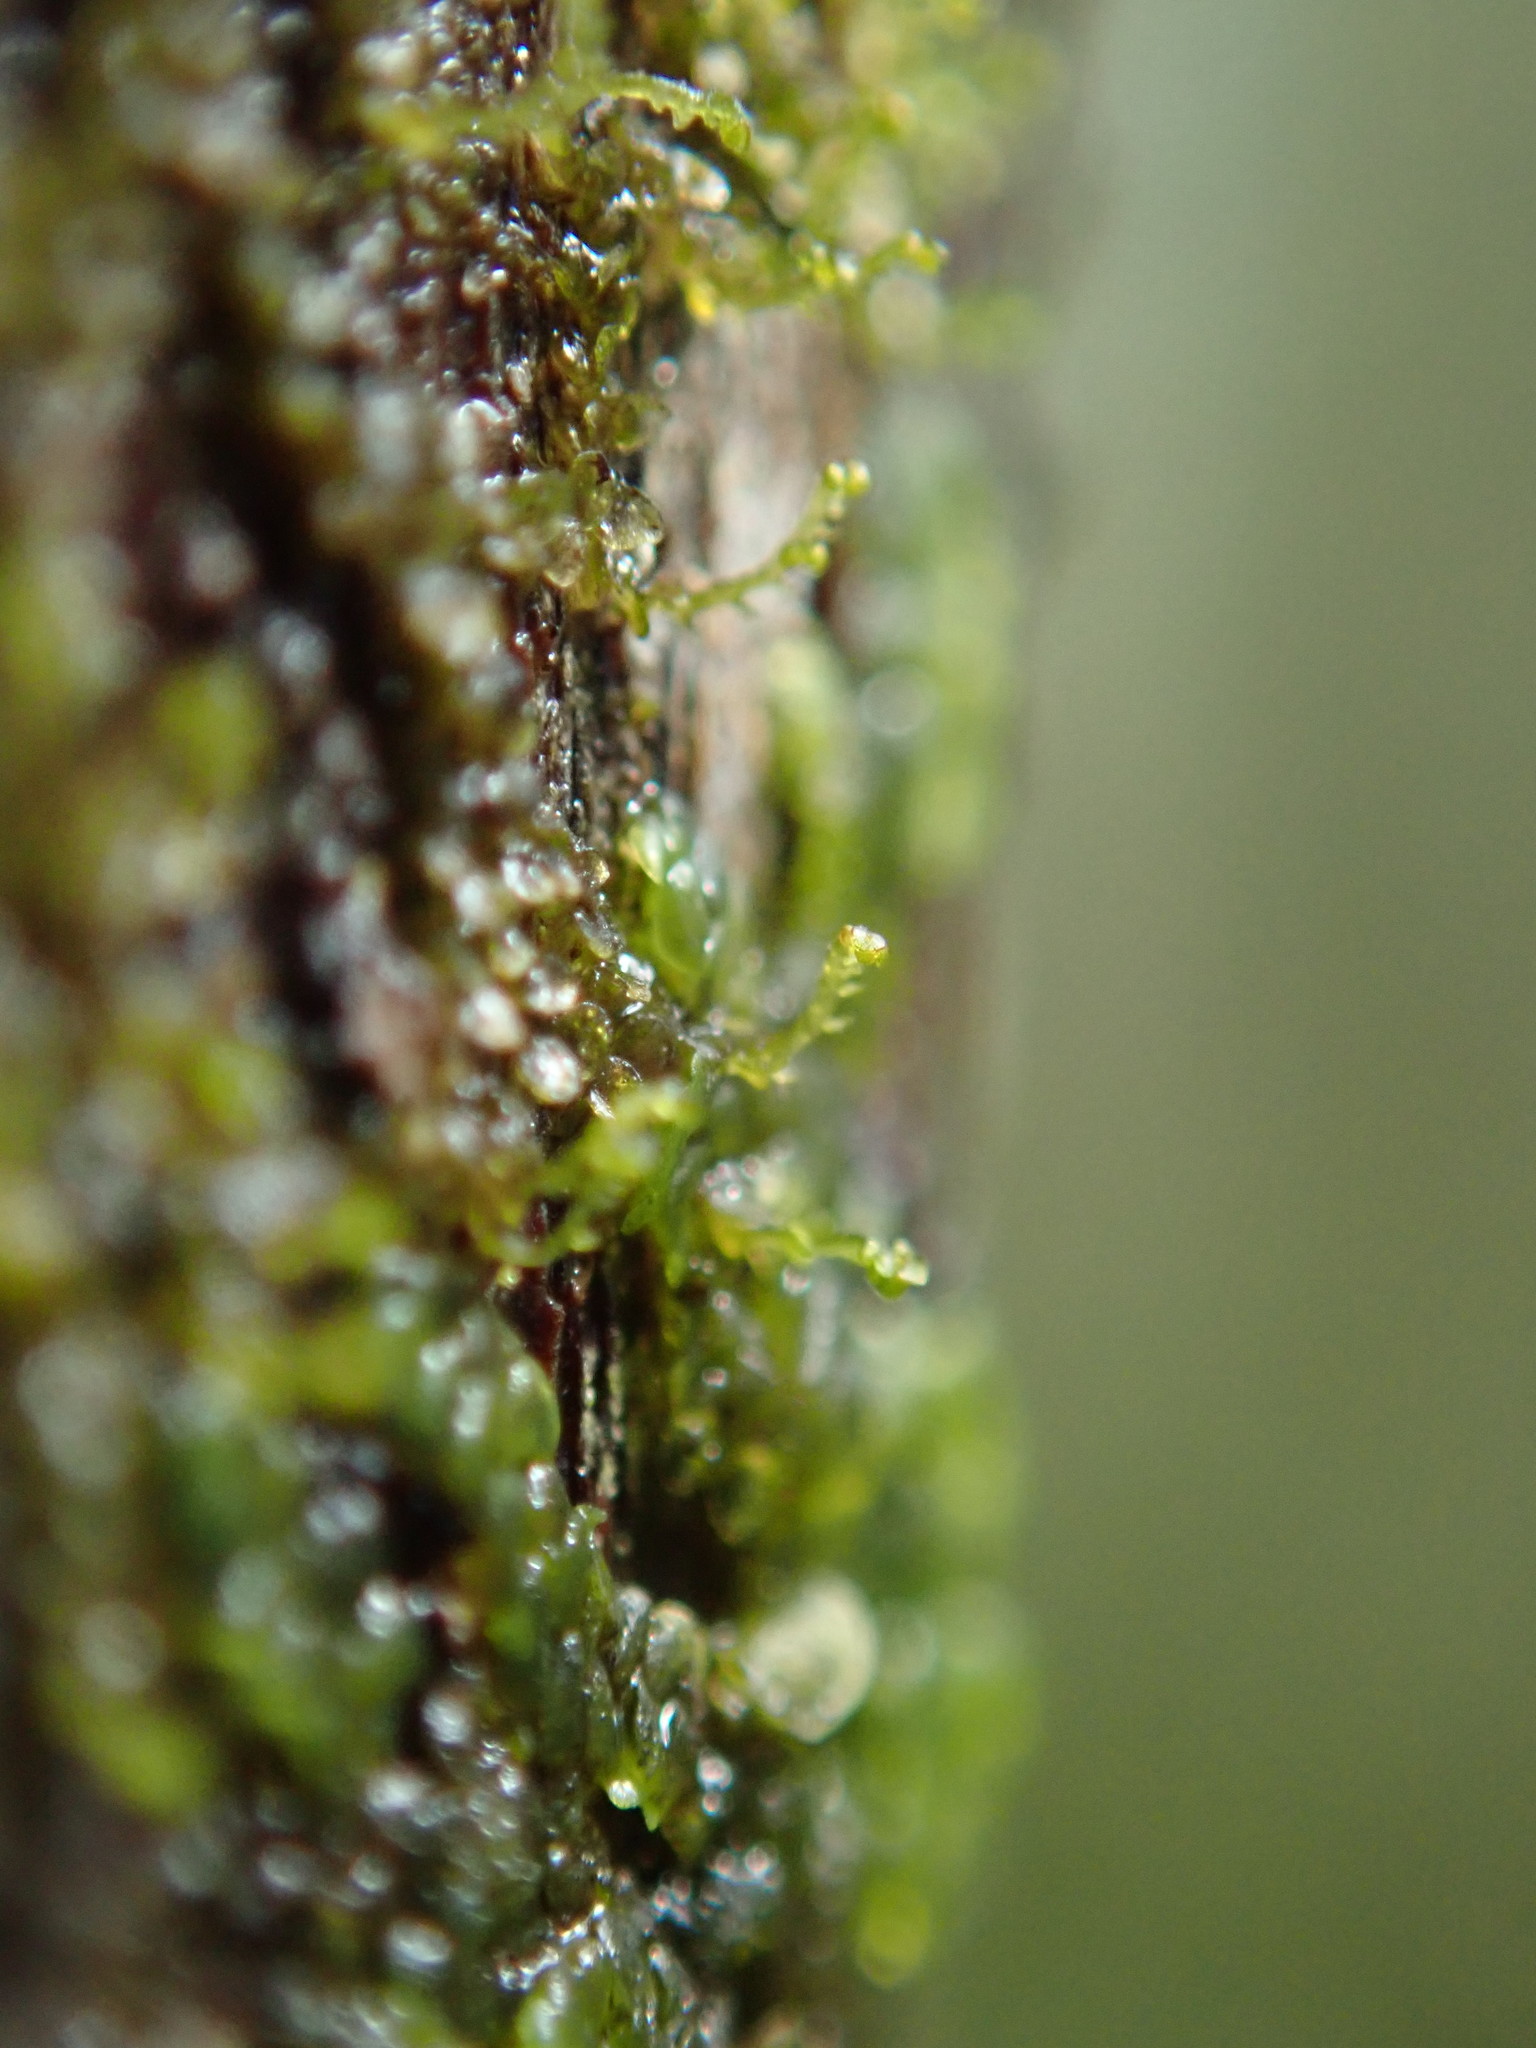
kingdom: Plantae
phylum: Marchantiophyta
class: Jungermanniopsida
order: Porellales
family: Frullaniaceae
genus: Frullania
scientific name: Frullania bolanderi
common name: Bolander s scalewort
